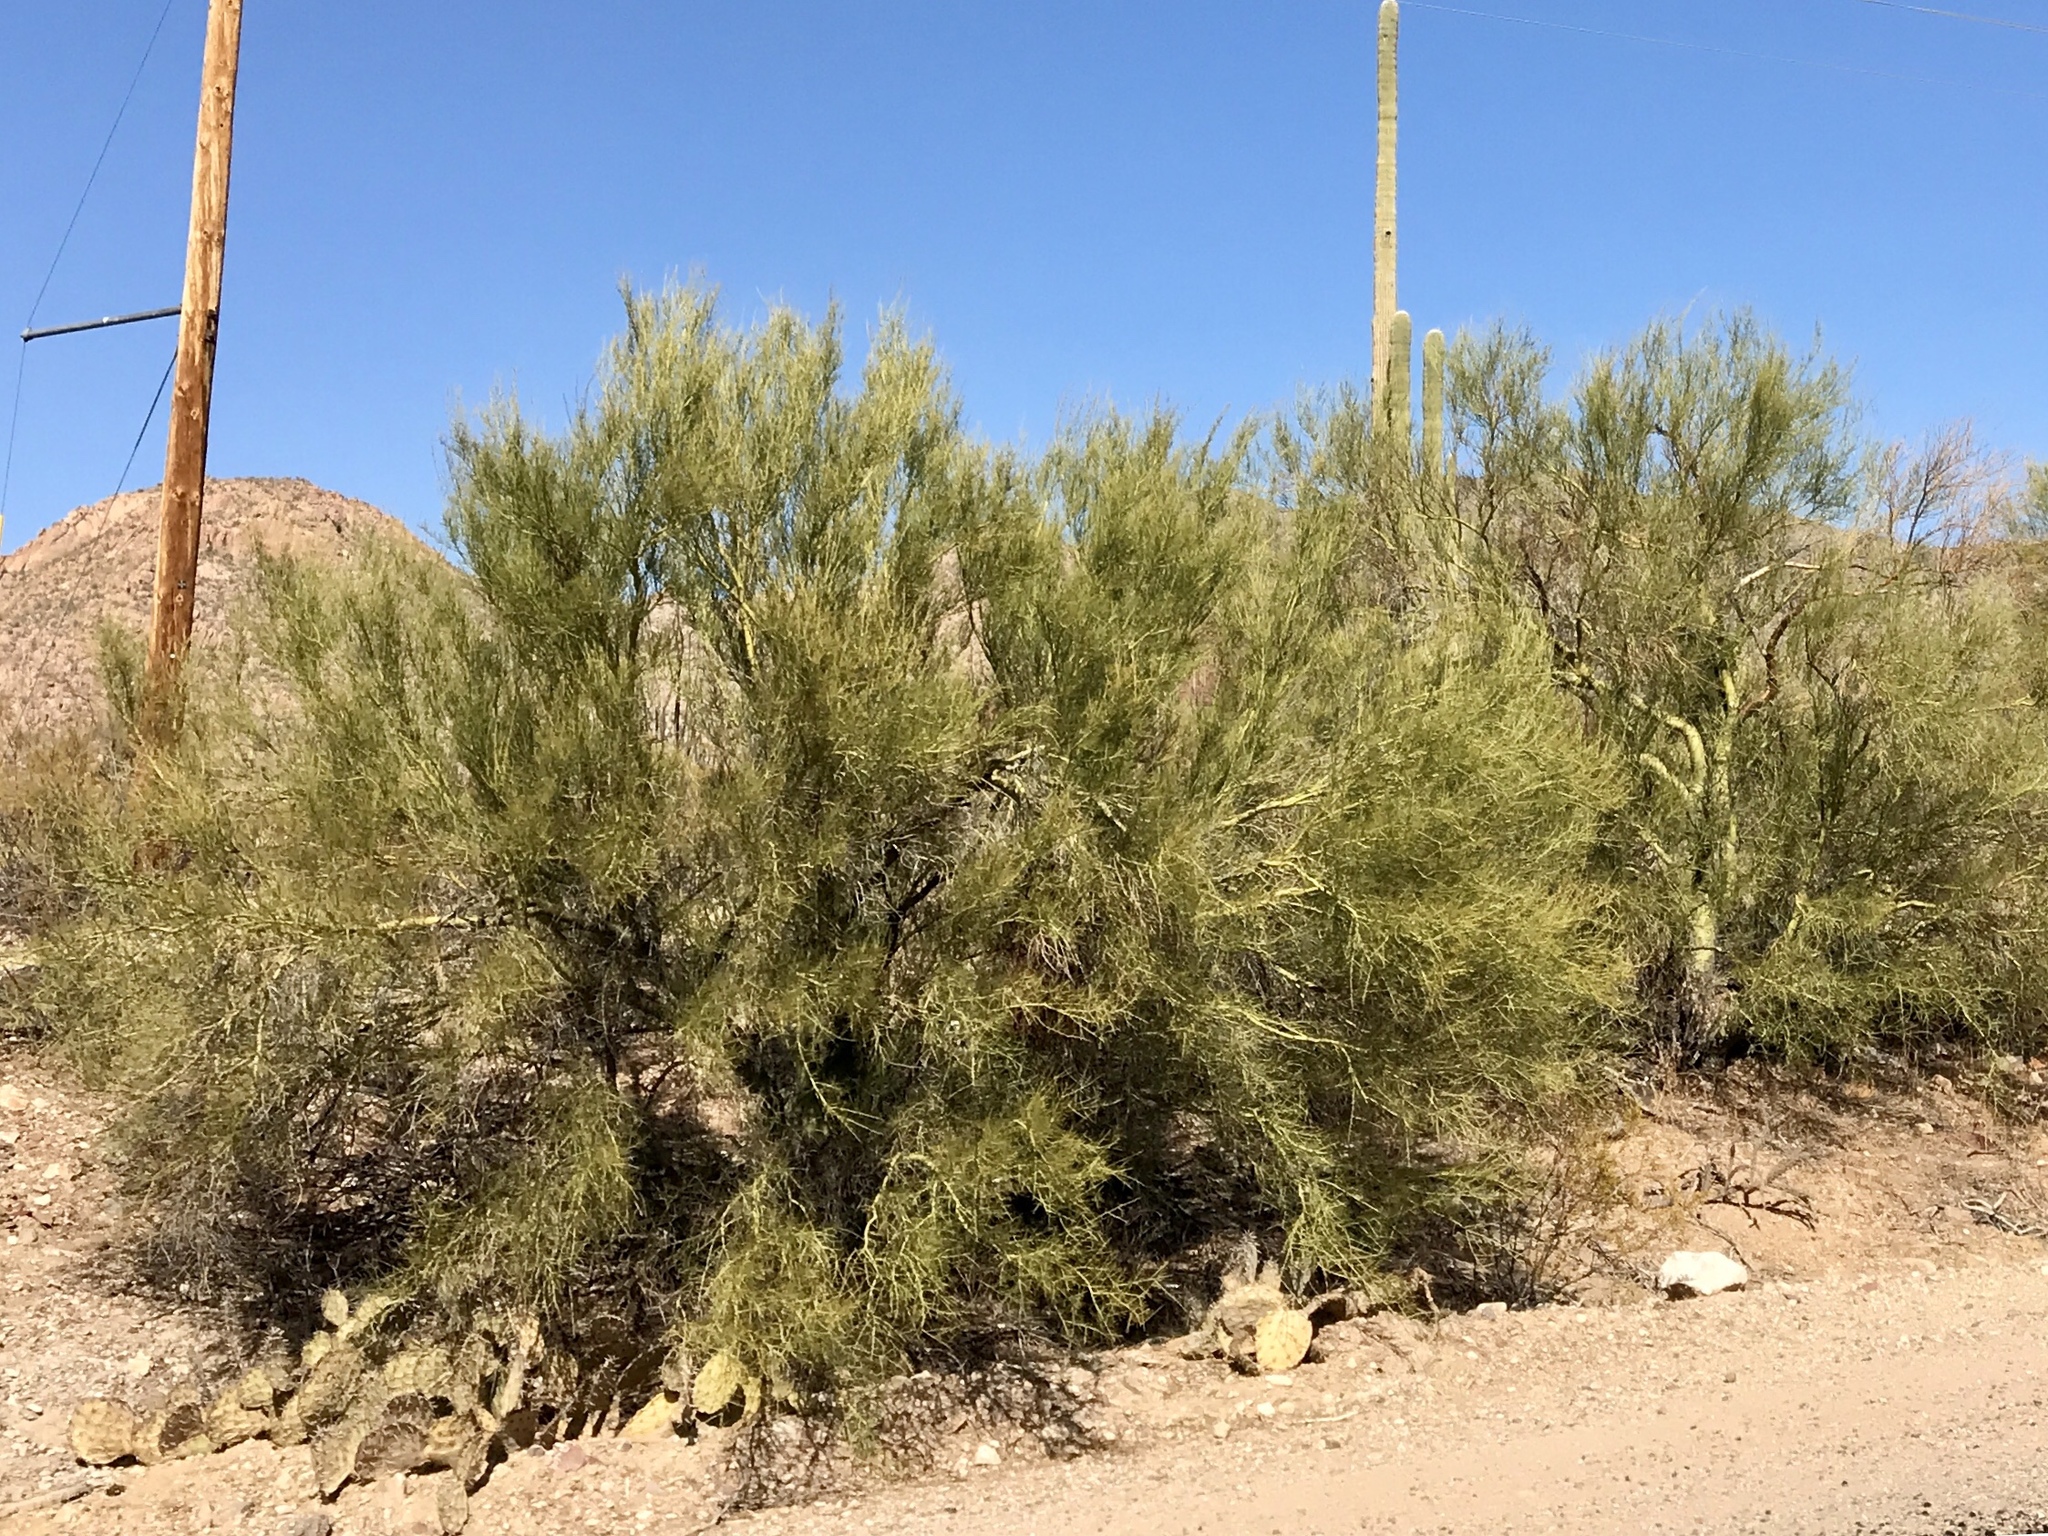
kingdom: Plantae
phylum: Tracheophyta
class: Magnoliopsida
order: Fabales
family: Fabaceae
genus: Parkinsonia
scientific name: Parkinsonia microphylla
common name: Yellow paloverde
